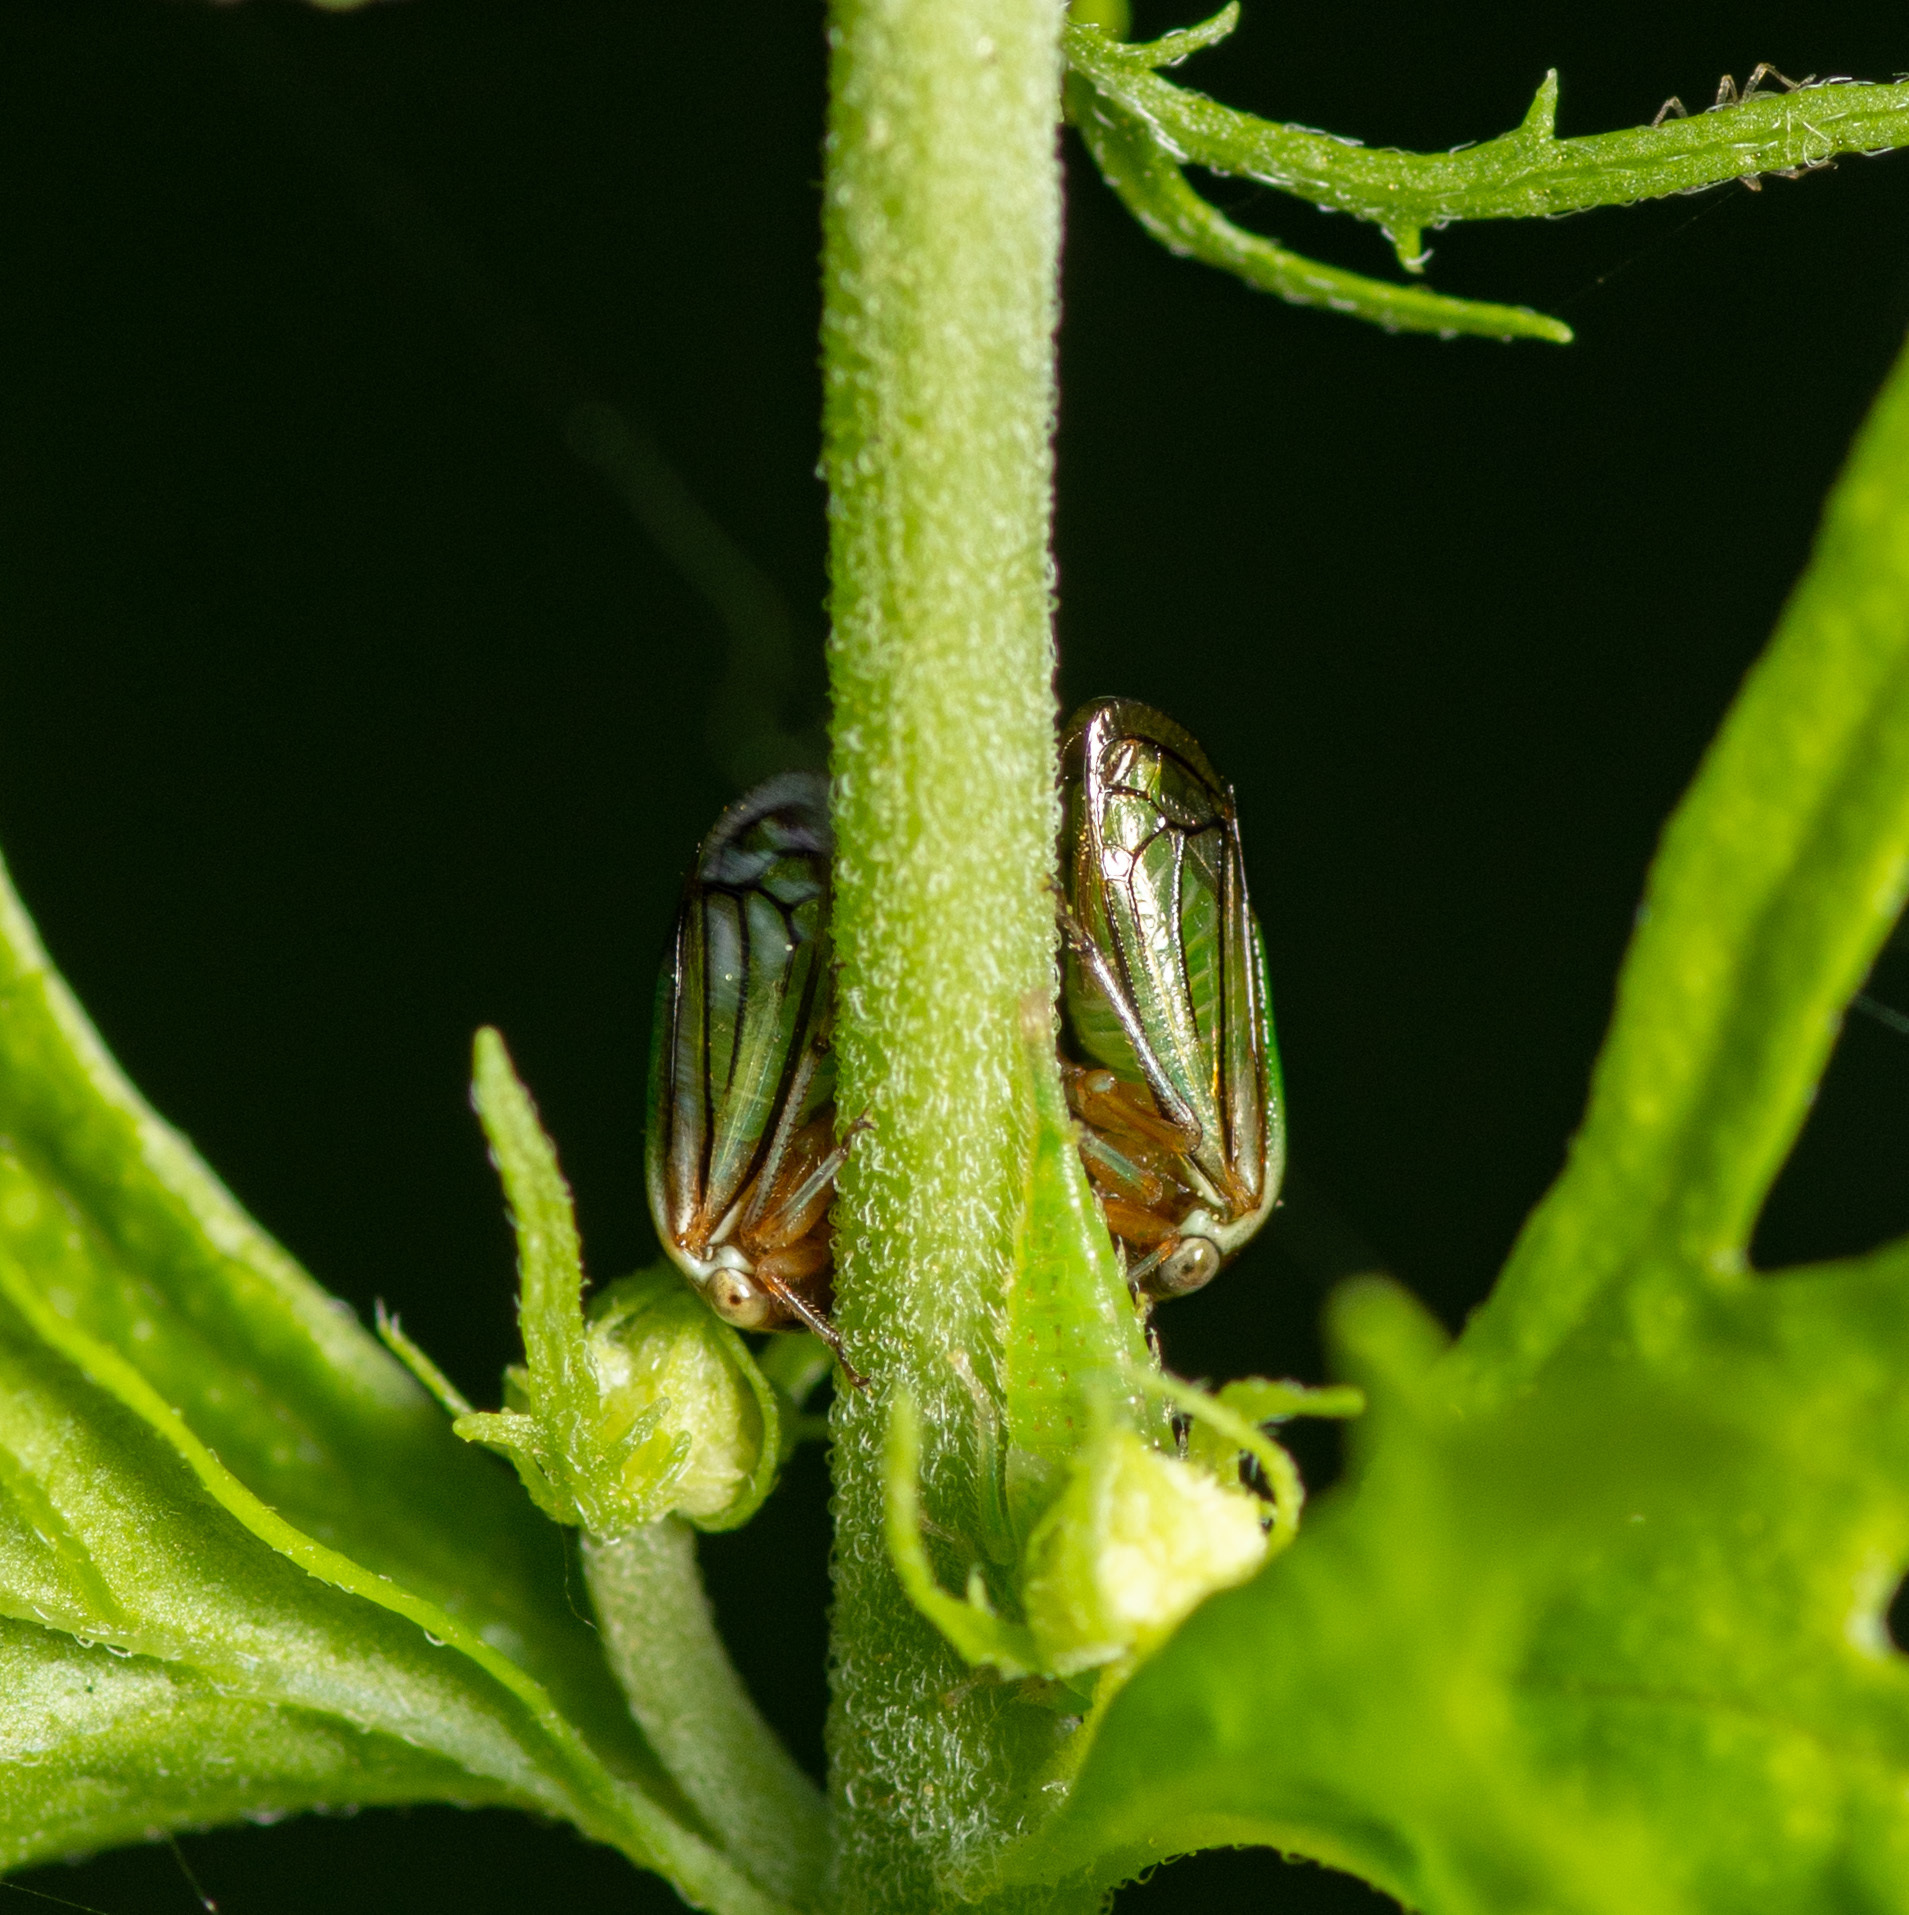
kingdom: Animalia
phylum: Arthropoda
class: Insecta
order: Hemiptera
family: Membracidae
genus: Acutalis
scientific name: Acutalis tartarea
